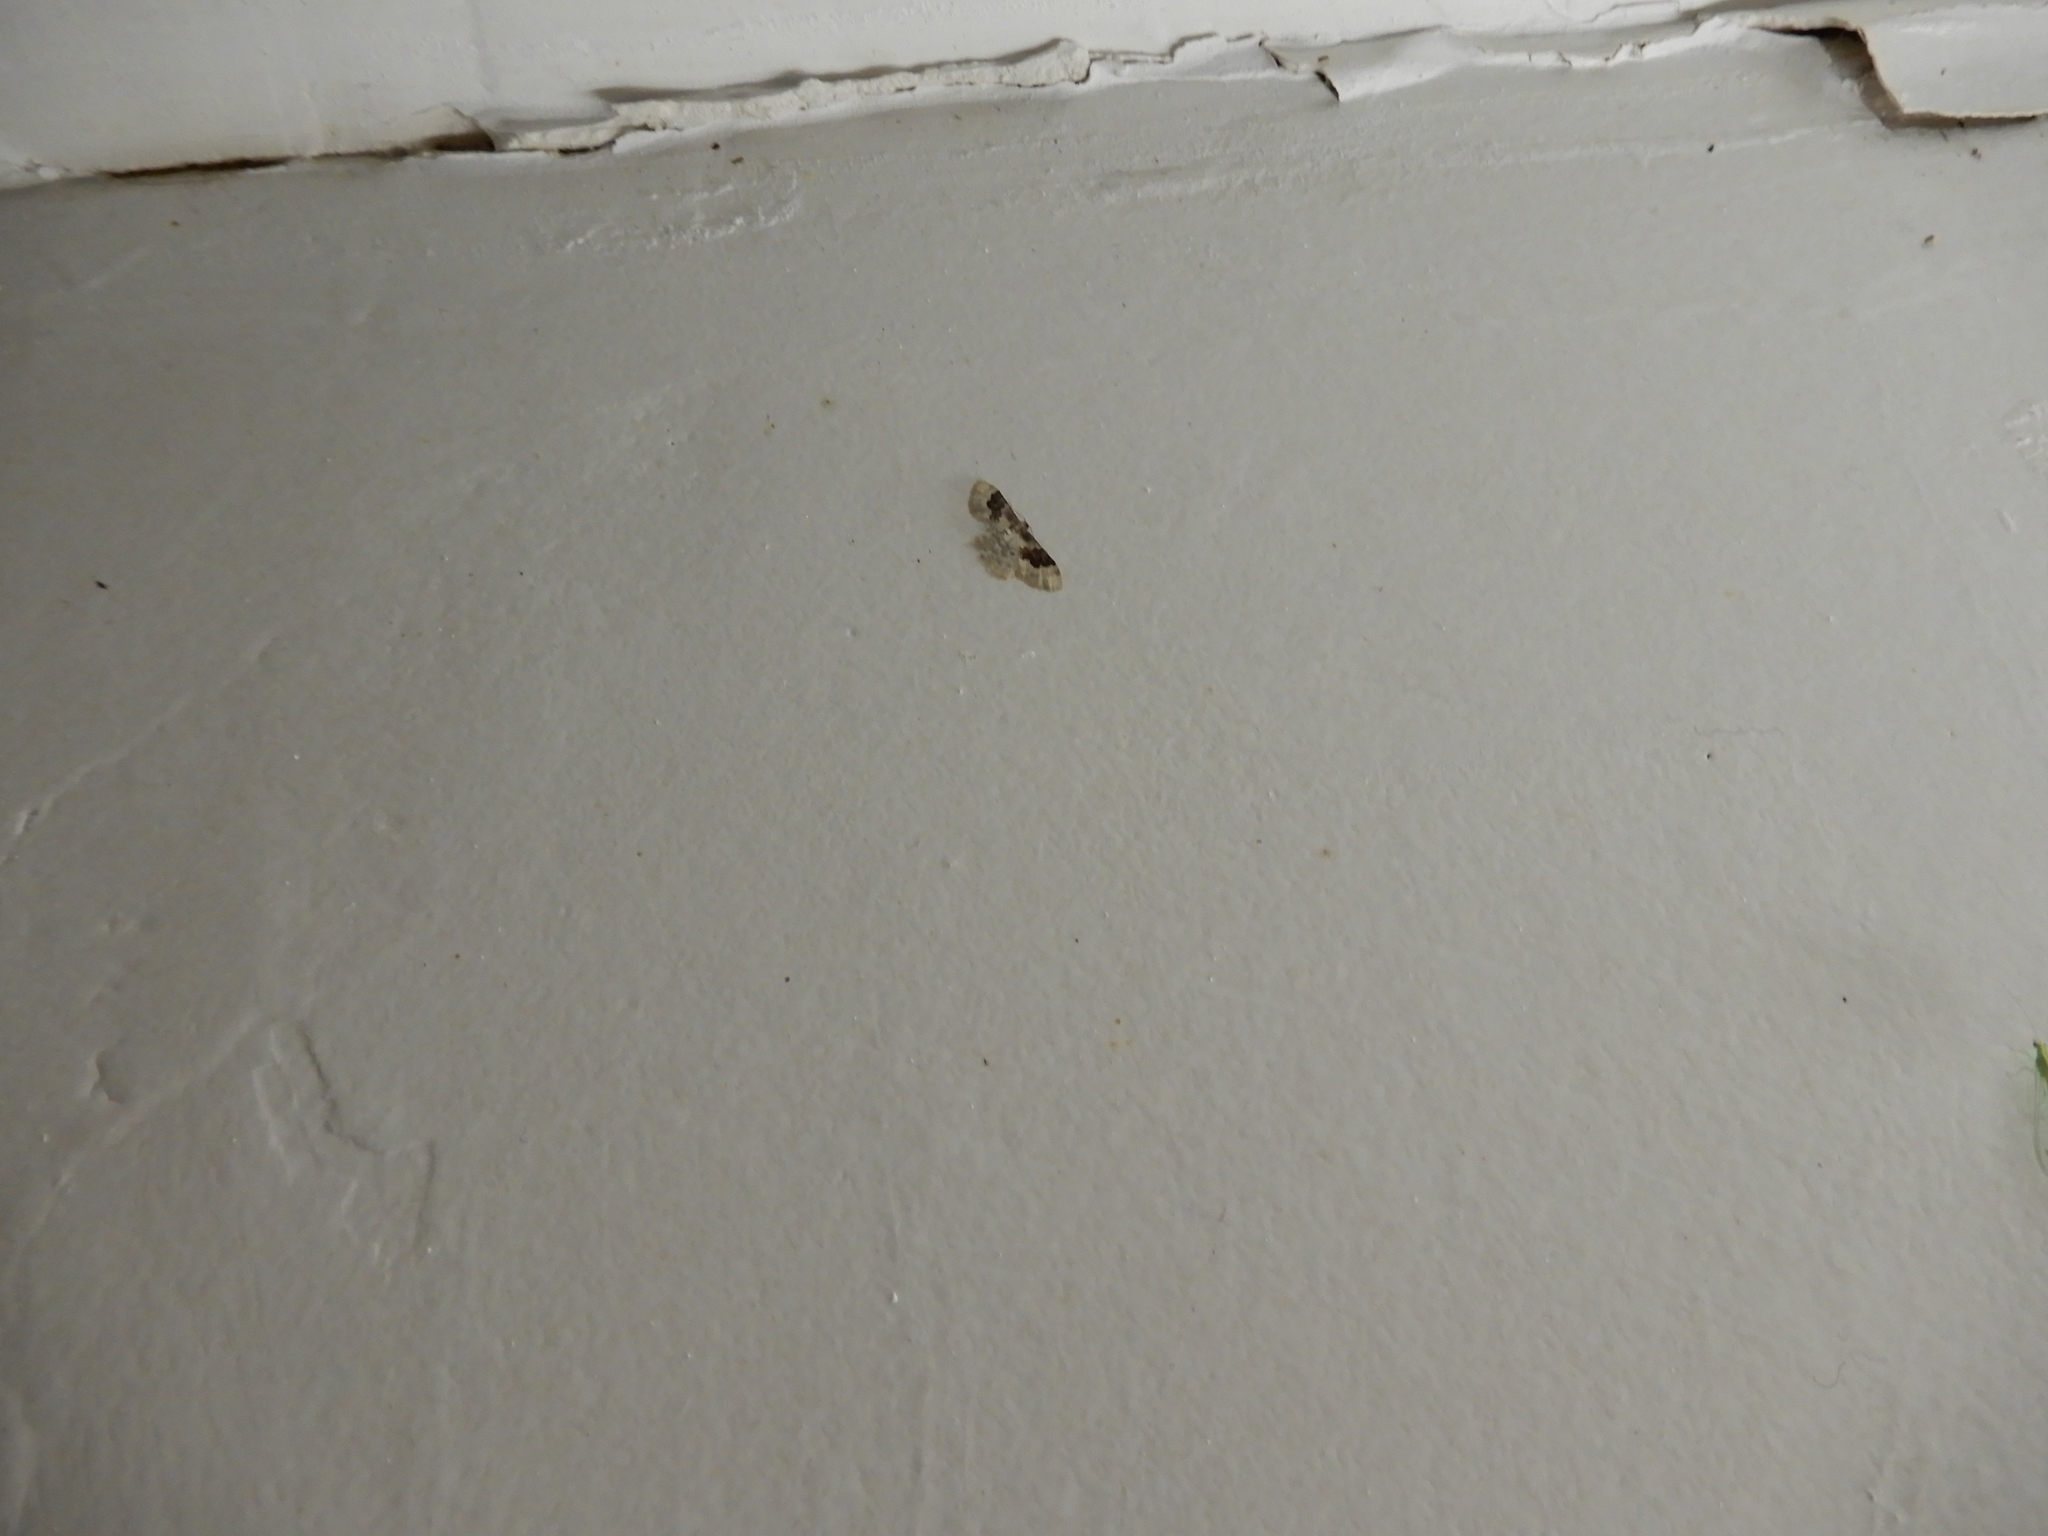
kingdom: Animalia
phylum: Arthropoda
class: Insecta
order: Lepidoptera
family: Geometridae
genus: Idaea
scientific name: Idaea rusticata
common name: Least carpet
